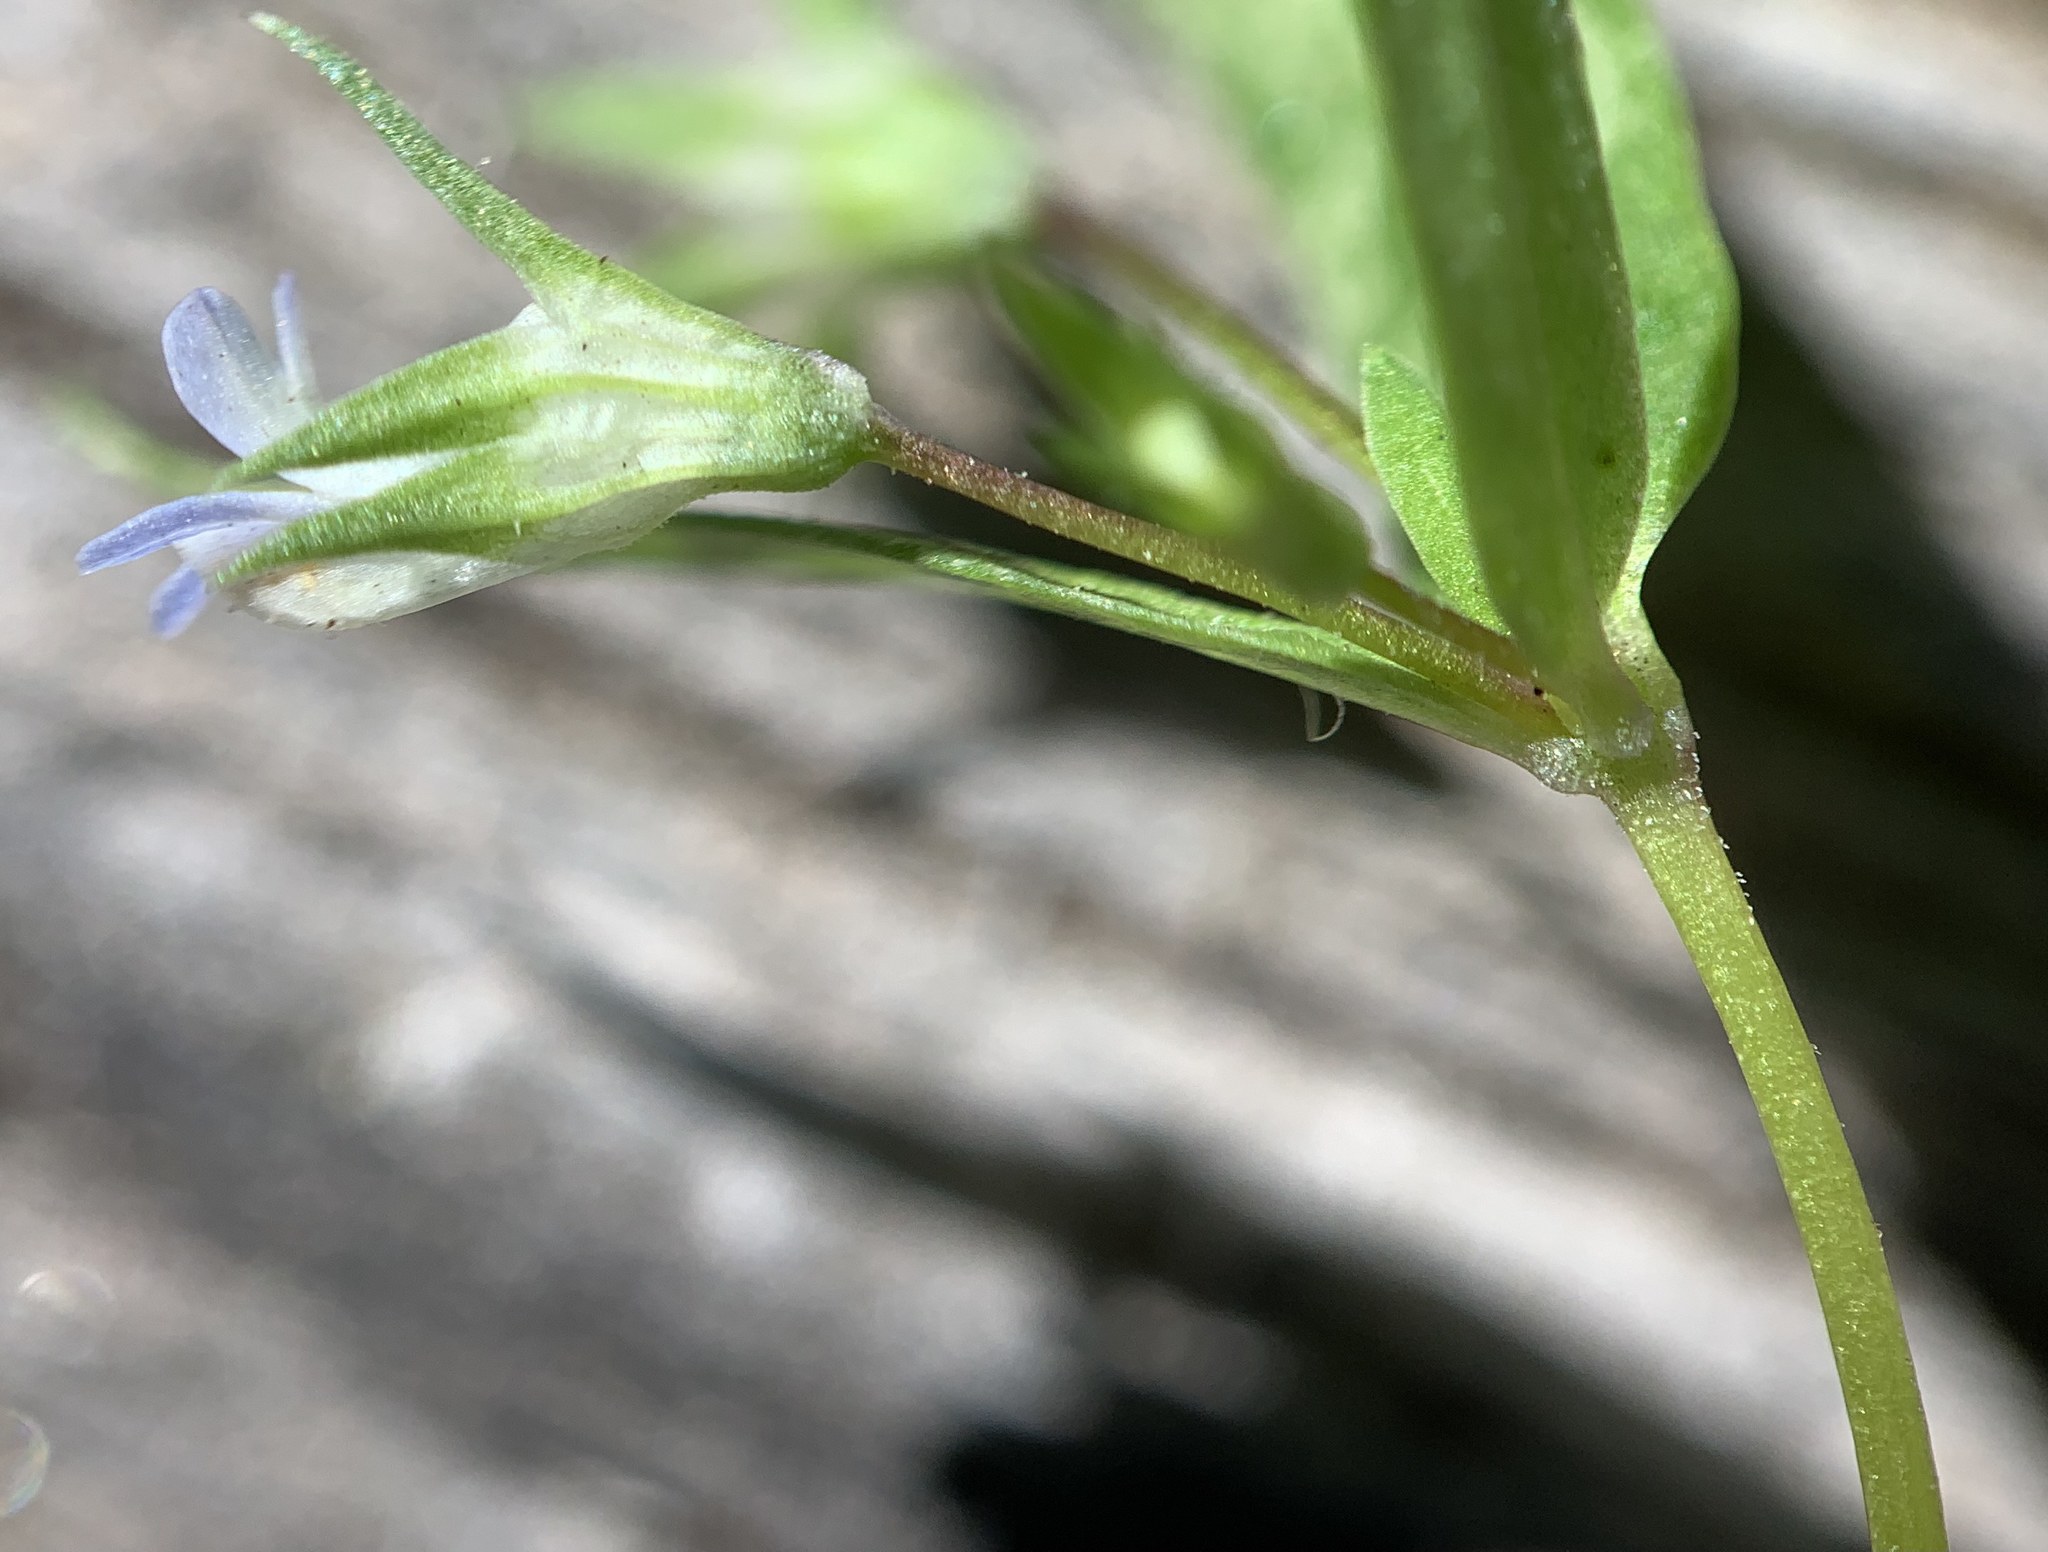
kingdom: Plantae
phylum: Tracheophyta
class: Magnoliopsida
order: Lamiales
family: Plantaginaceae
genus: Collinsia
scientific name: Collinsia parviflora
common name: Blue-lips
